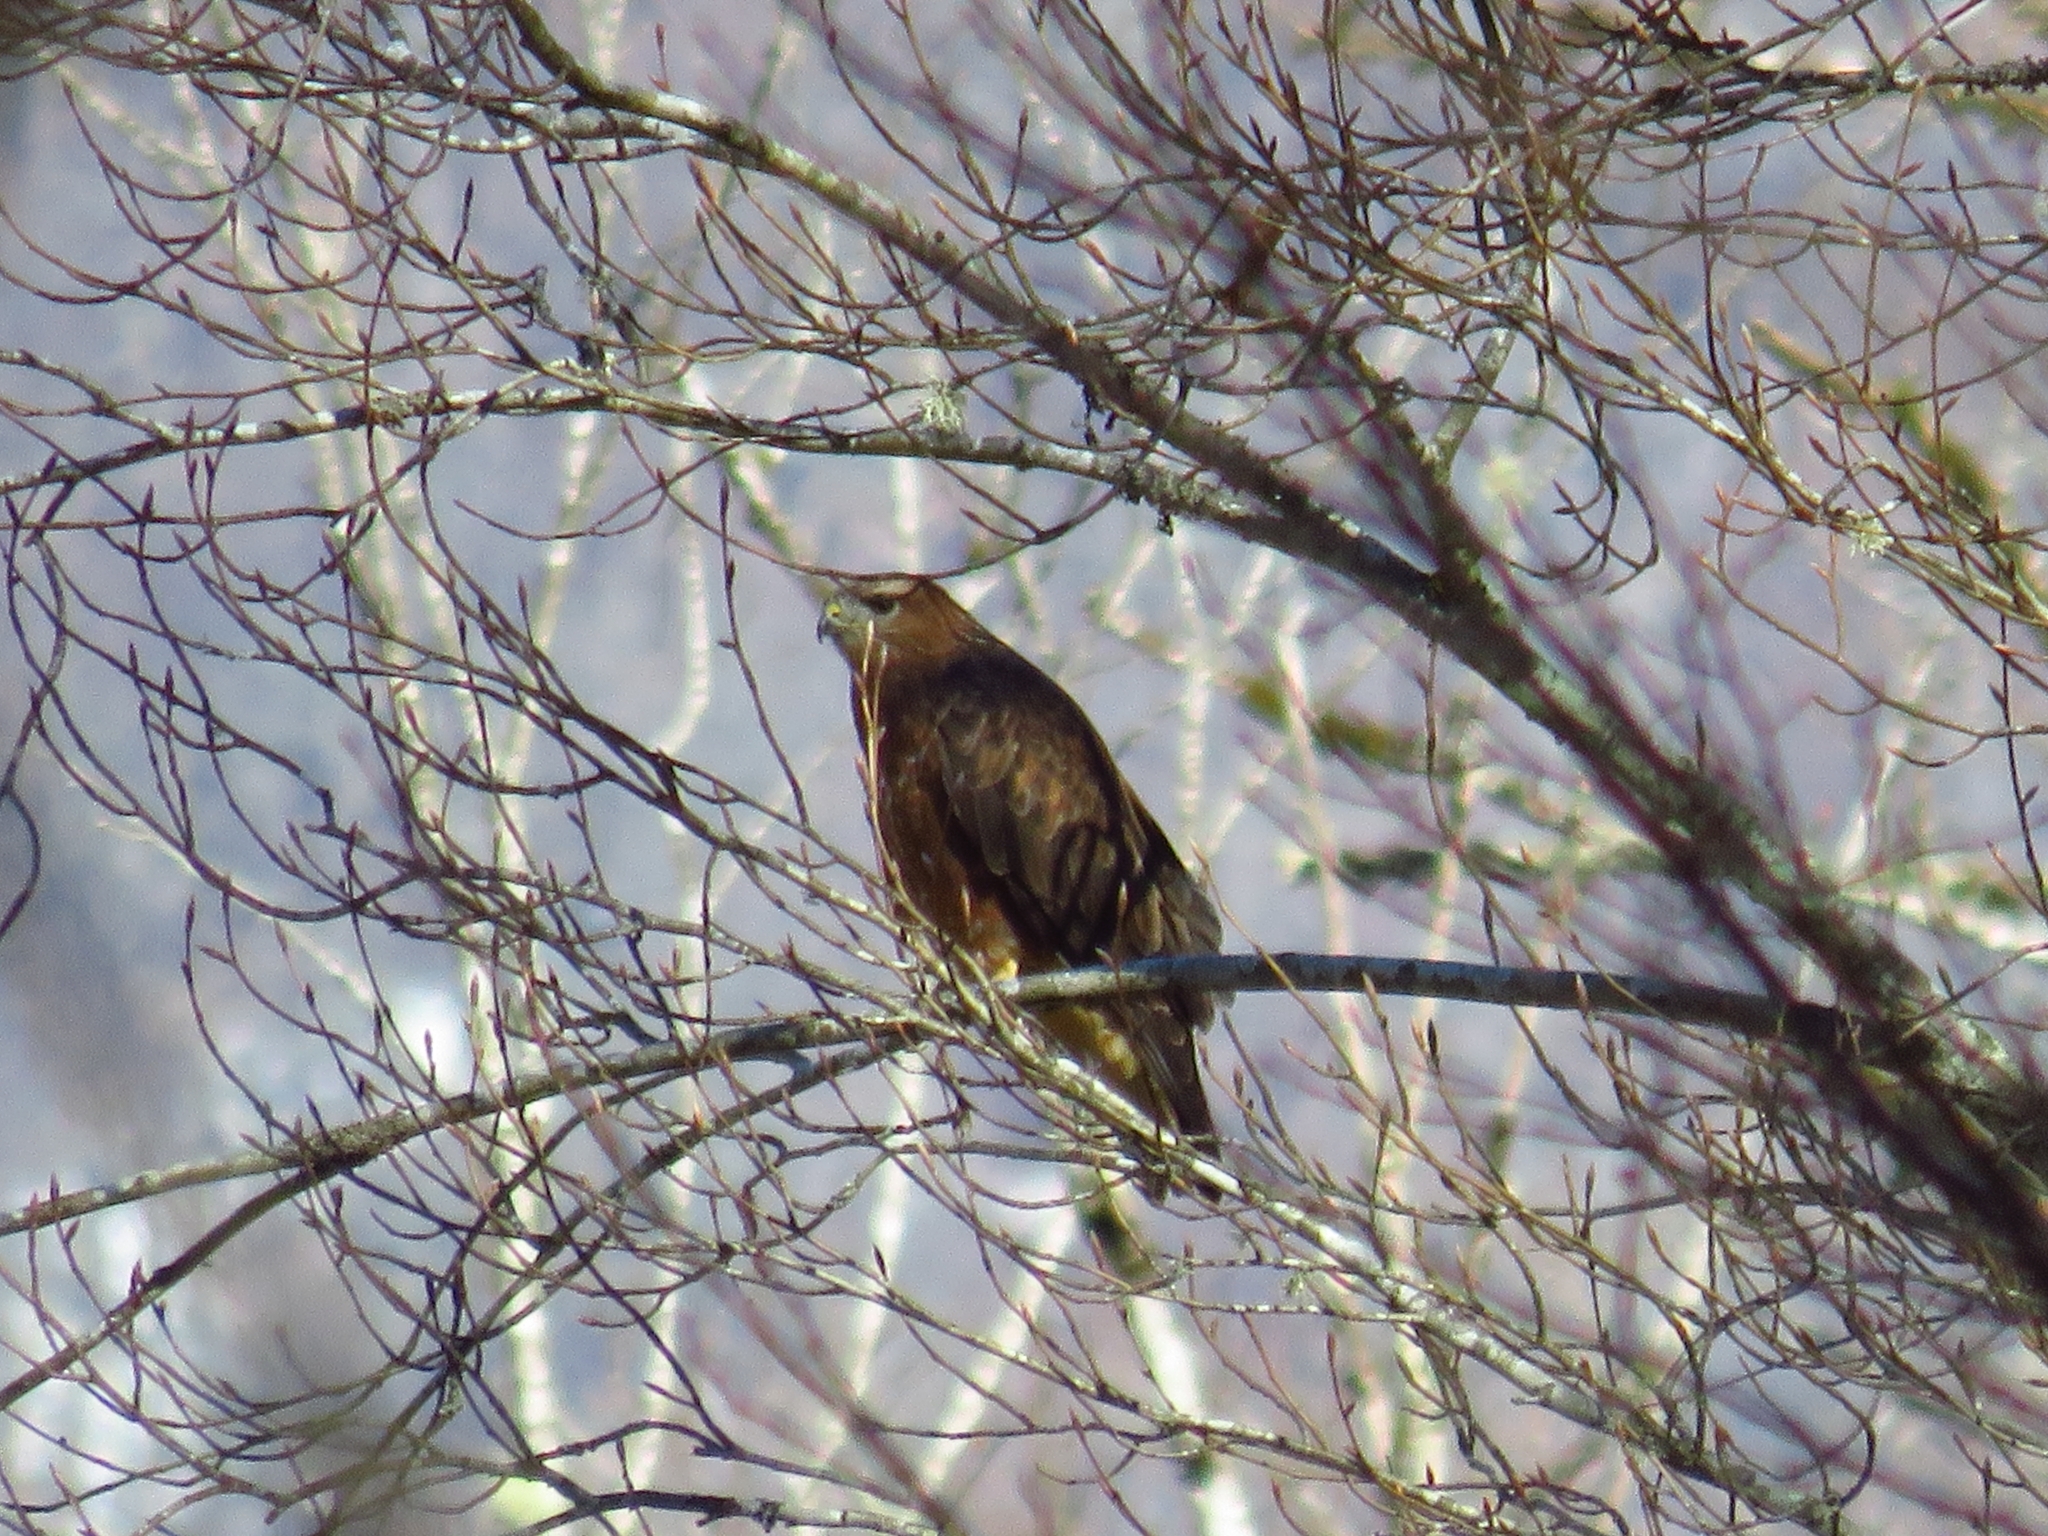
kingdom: Animalia
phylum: Chordata
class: Aves
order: Accipitriformes
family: Accipitridae
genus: Buteo
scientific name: Buteo buteo
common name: Common buzzard
